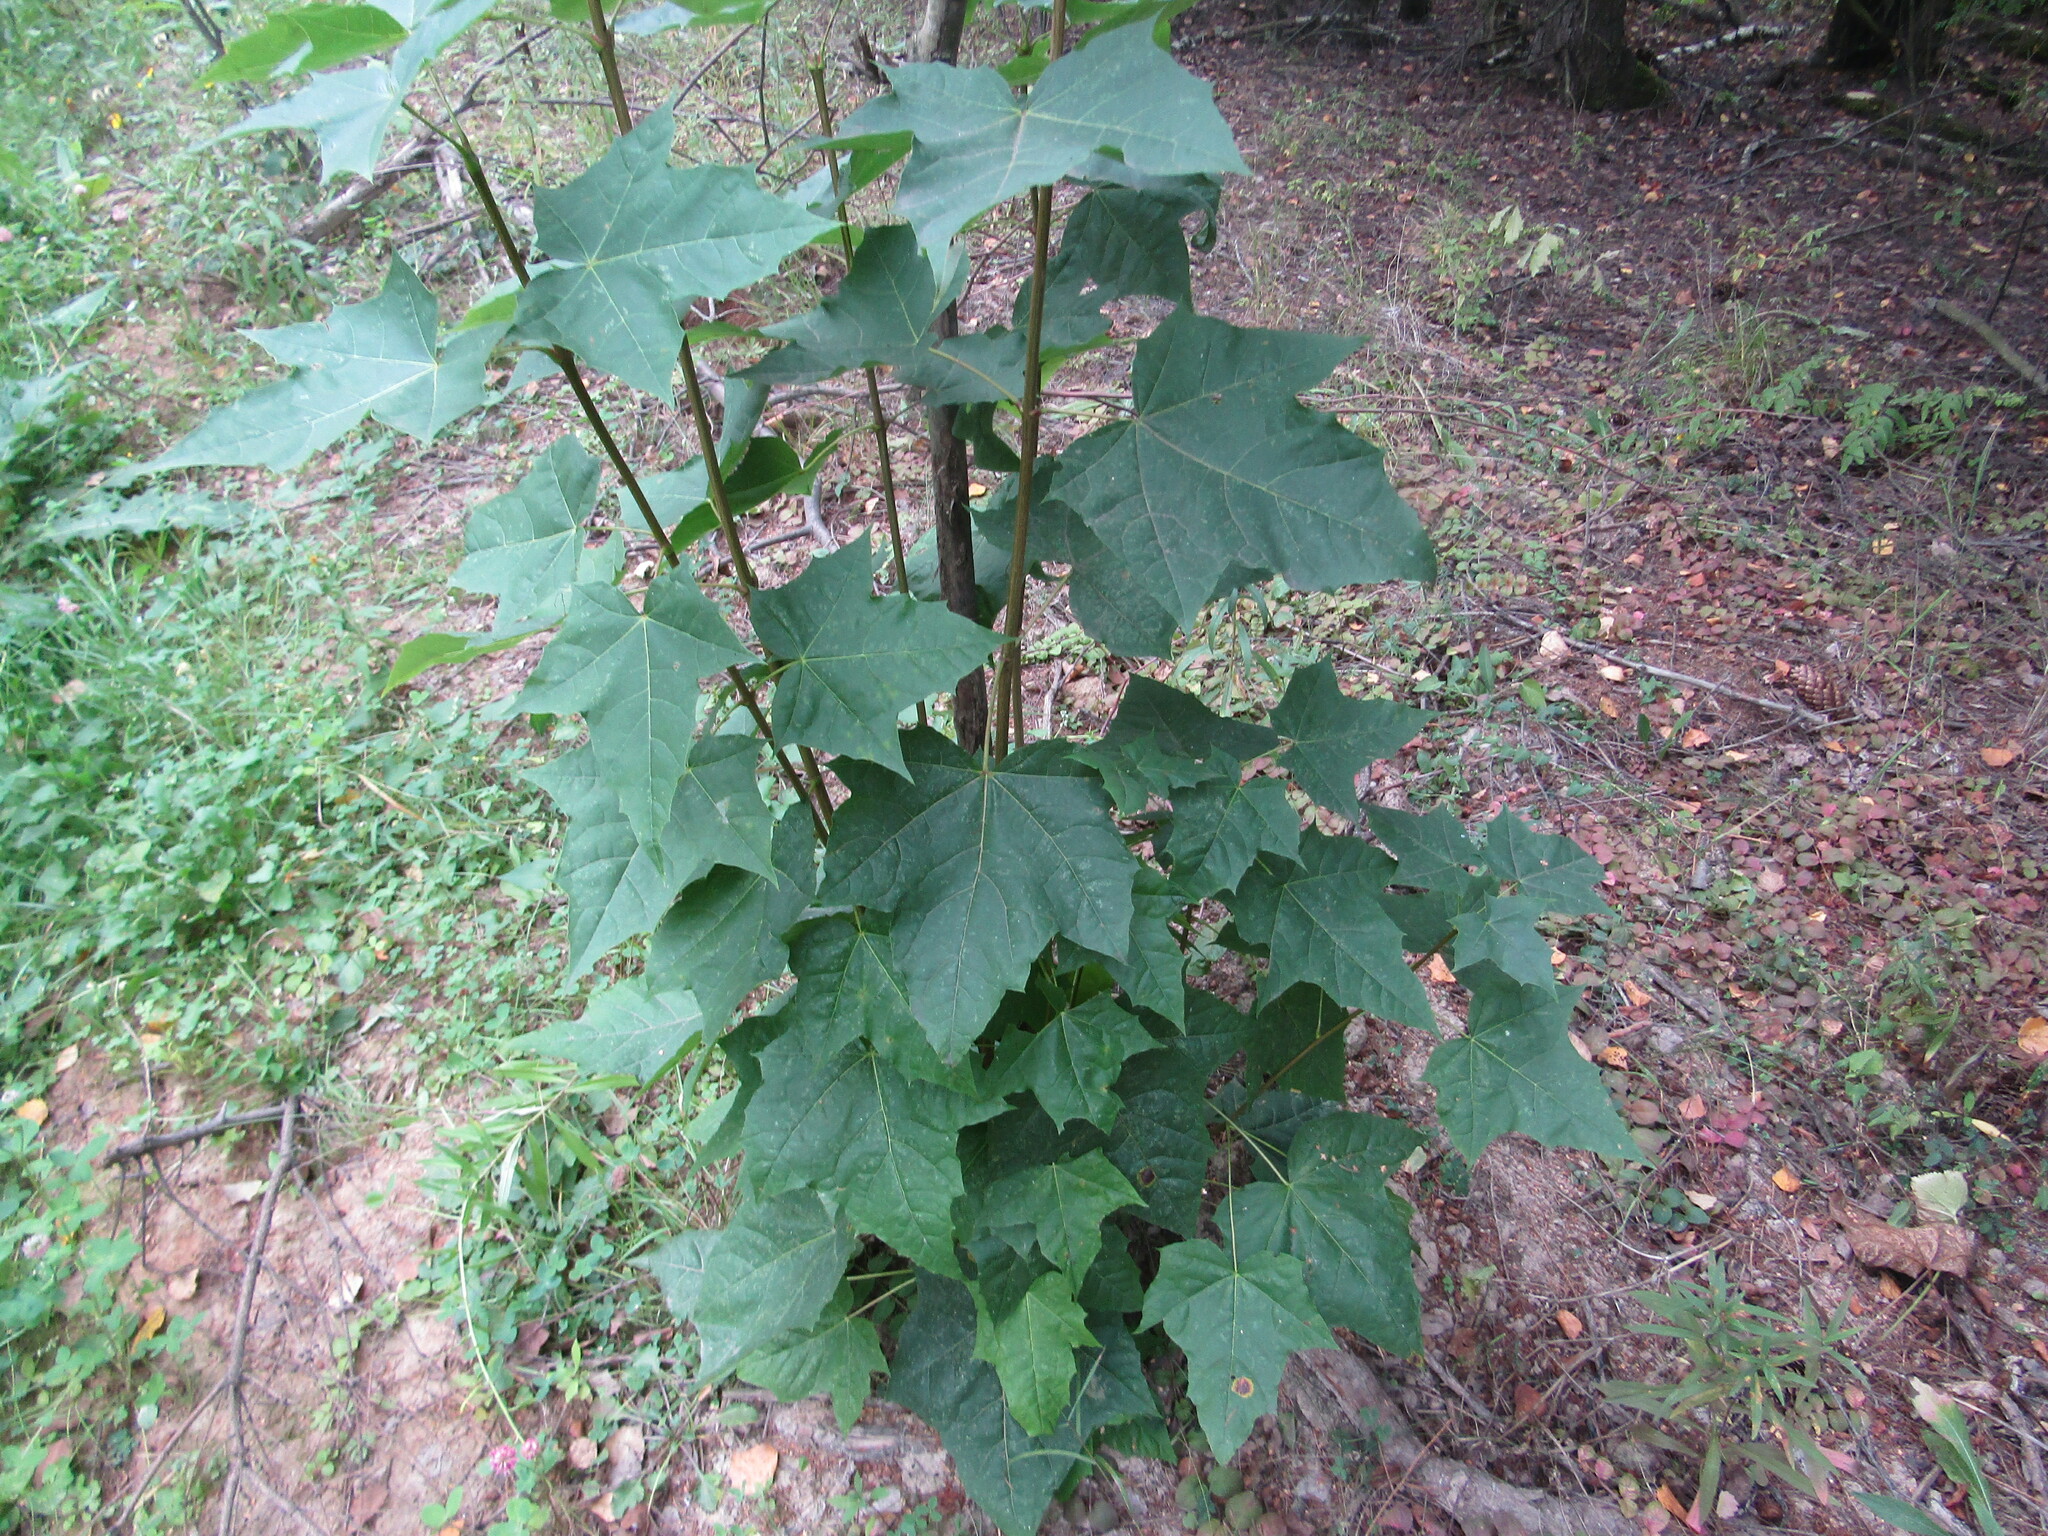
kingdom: Plantae
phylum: Tracheophyta
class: Magnoliopsida
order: Sapindales
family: Sapindaceae
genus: Acer
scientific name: Acer platanoides
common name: Norway maple
